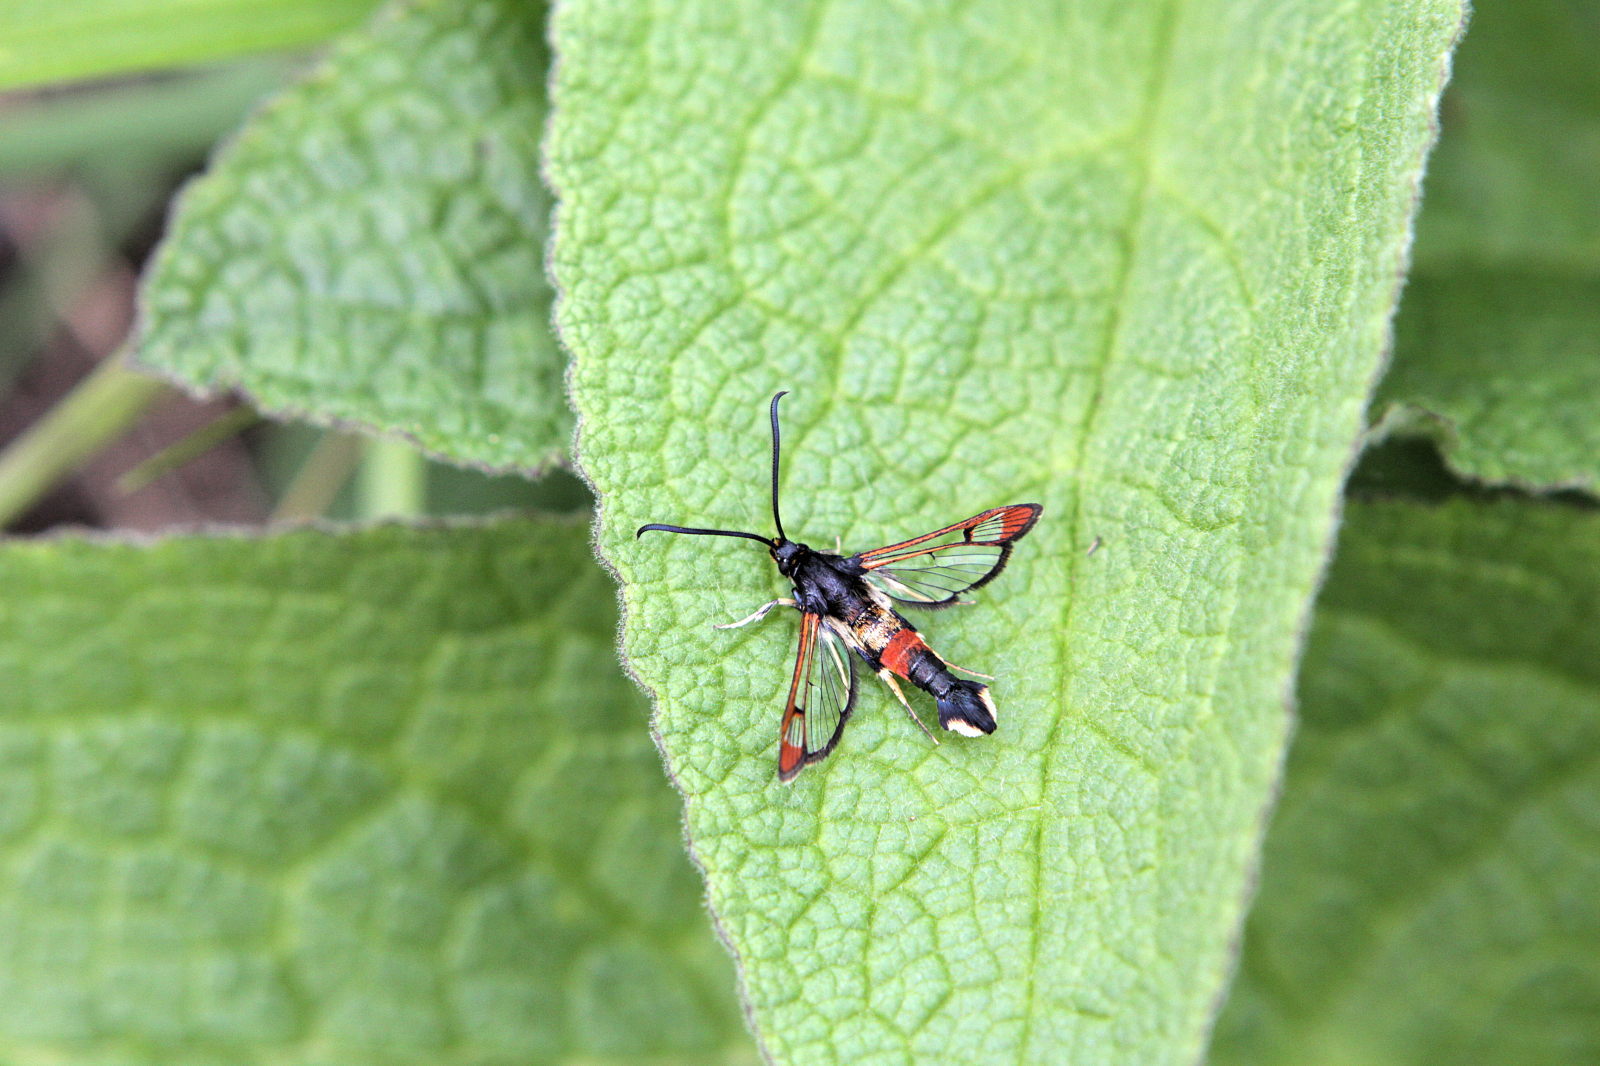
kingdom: Animalia
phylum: Arthropoda
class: Insecta
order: Lepidoptera
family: Sesiidae
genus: Synanthedon
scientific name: Synanthedon formicaeformis
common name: Red-tipped clearwing
